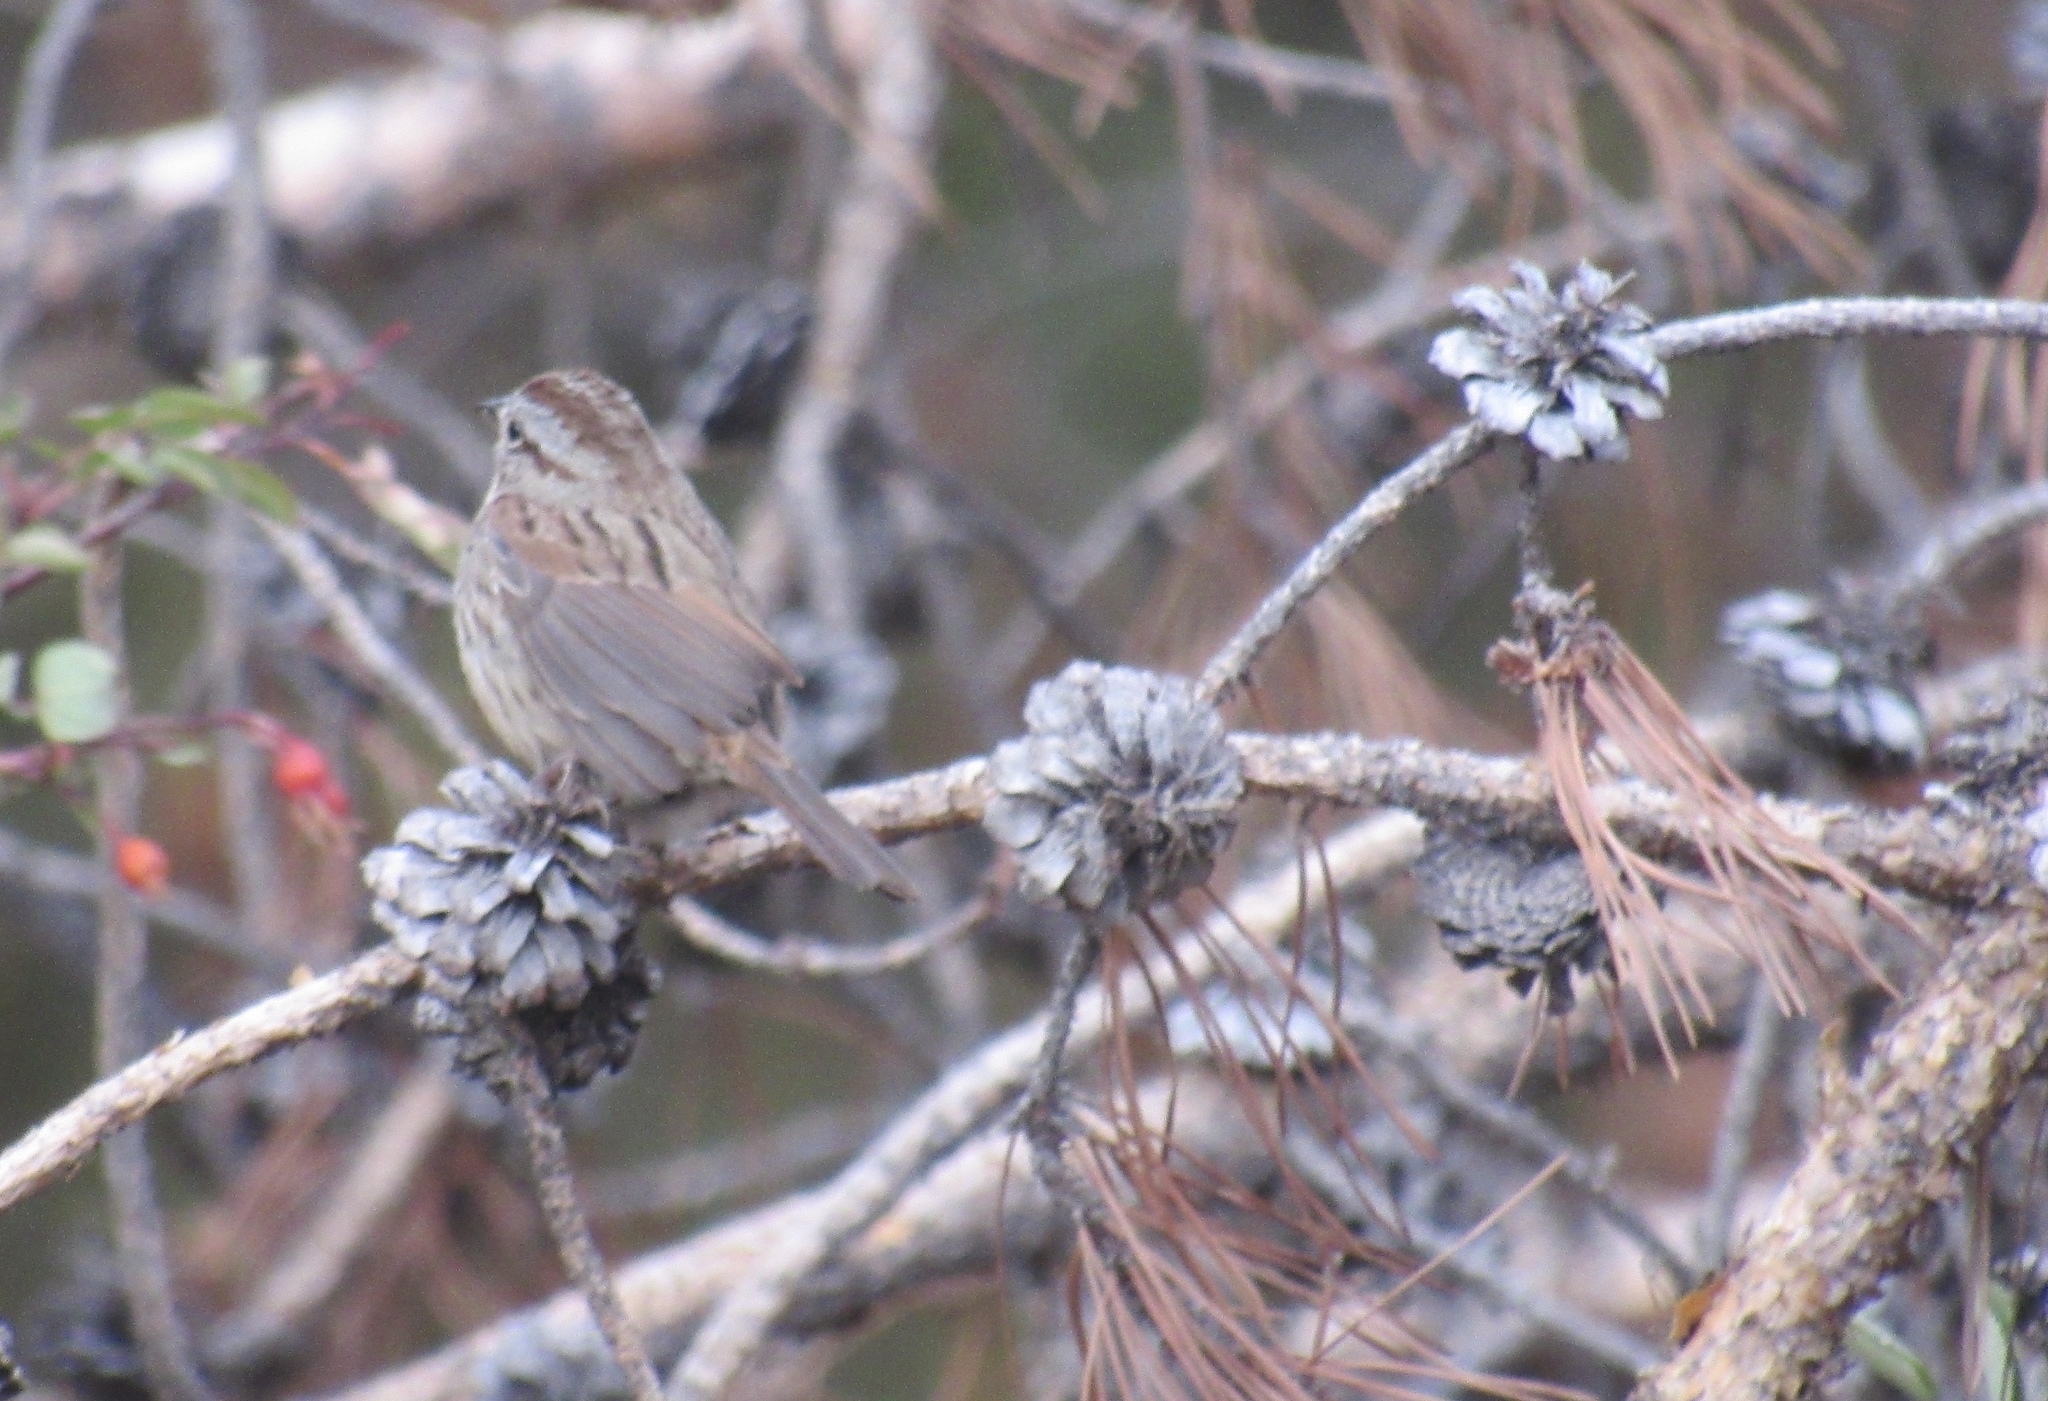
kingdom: Animalia
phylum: Chordata
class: Aves
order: Passeriformes
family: Passerellidae
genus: Melospiza
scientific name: Melospiza melodia
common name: Song sparrow
